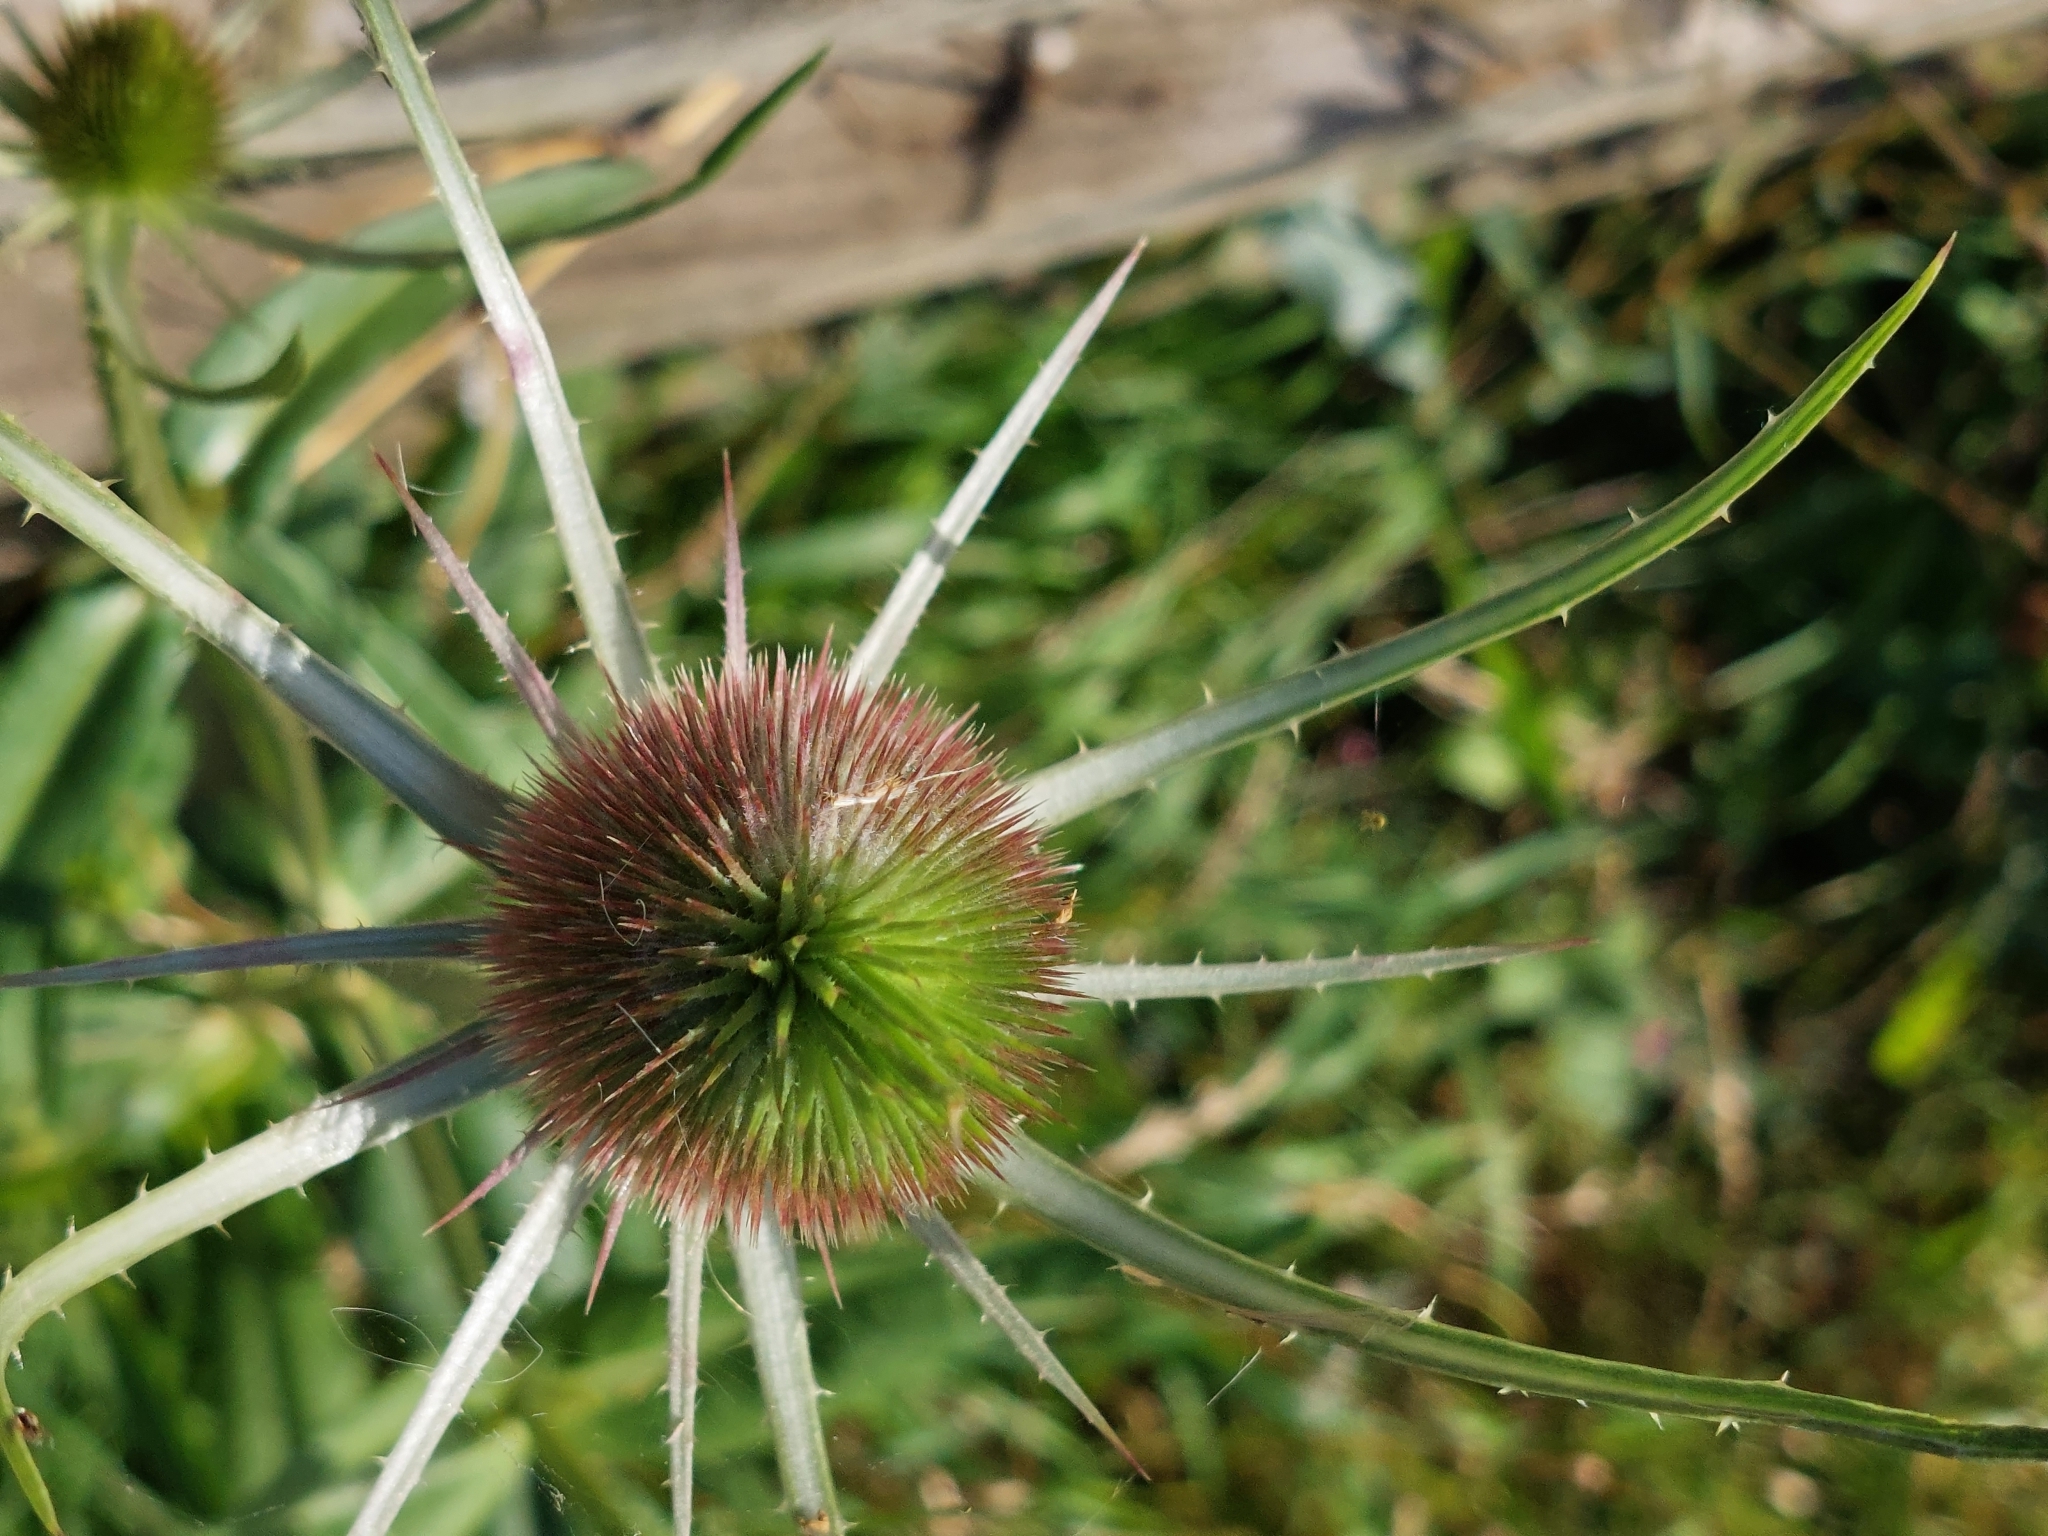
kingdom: Plantae
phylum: Tracheophyta
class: Magnoliopsida
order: Dipsacales
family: Caprifoliaceae
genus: Dipsacus
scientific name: Dipsacus fullonum
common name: Teasel
